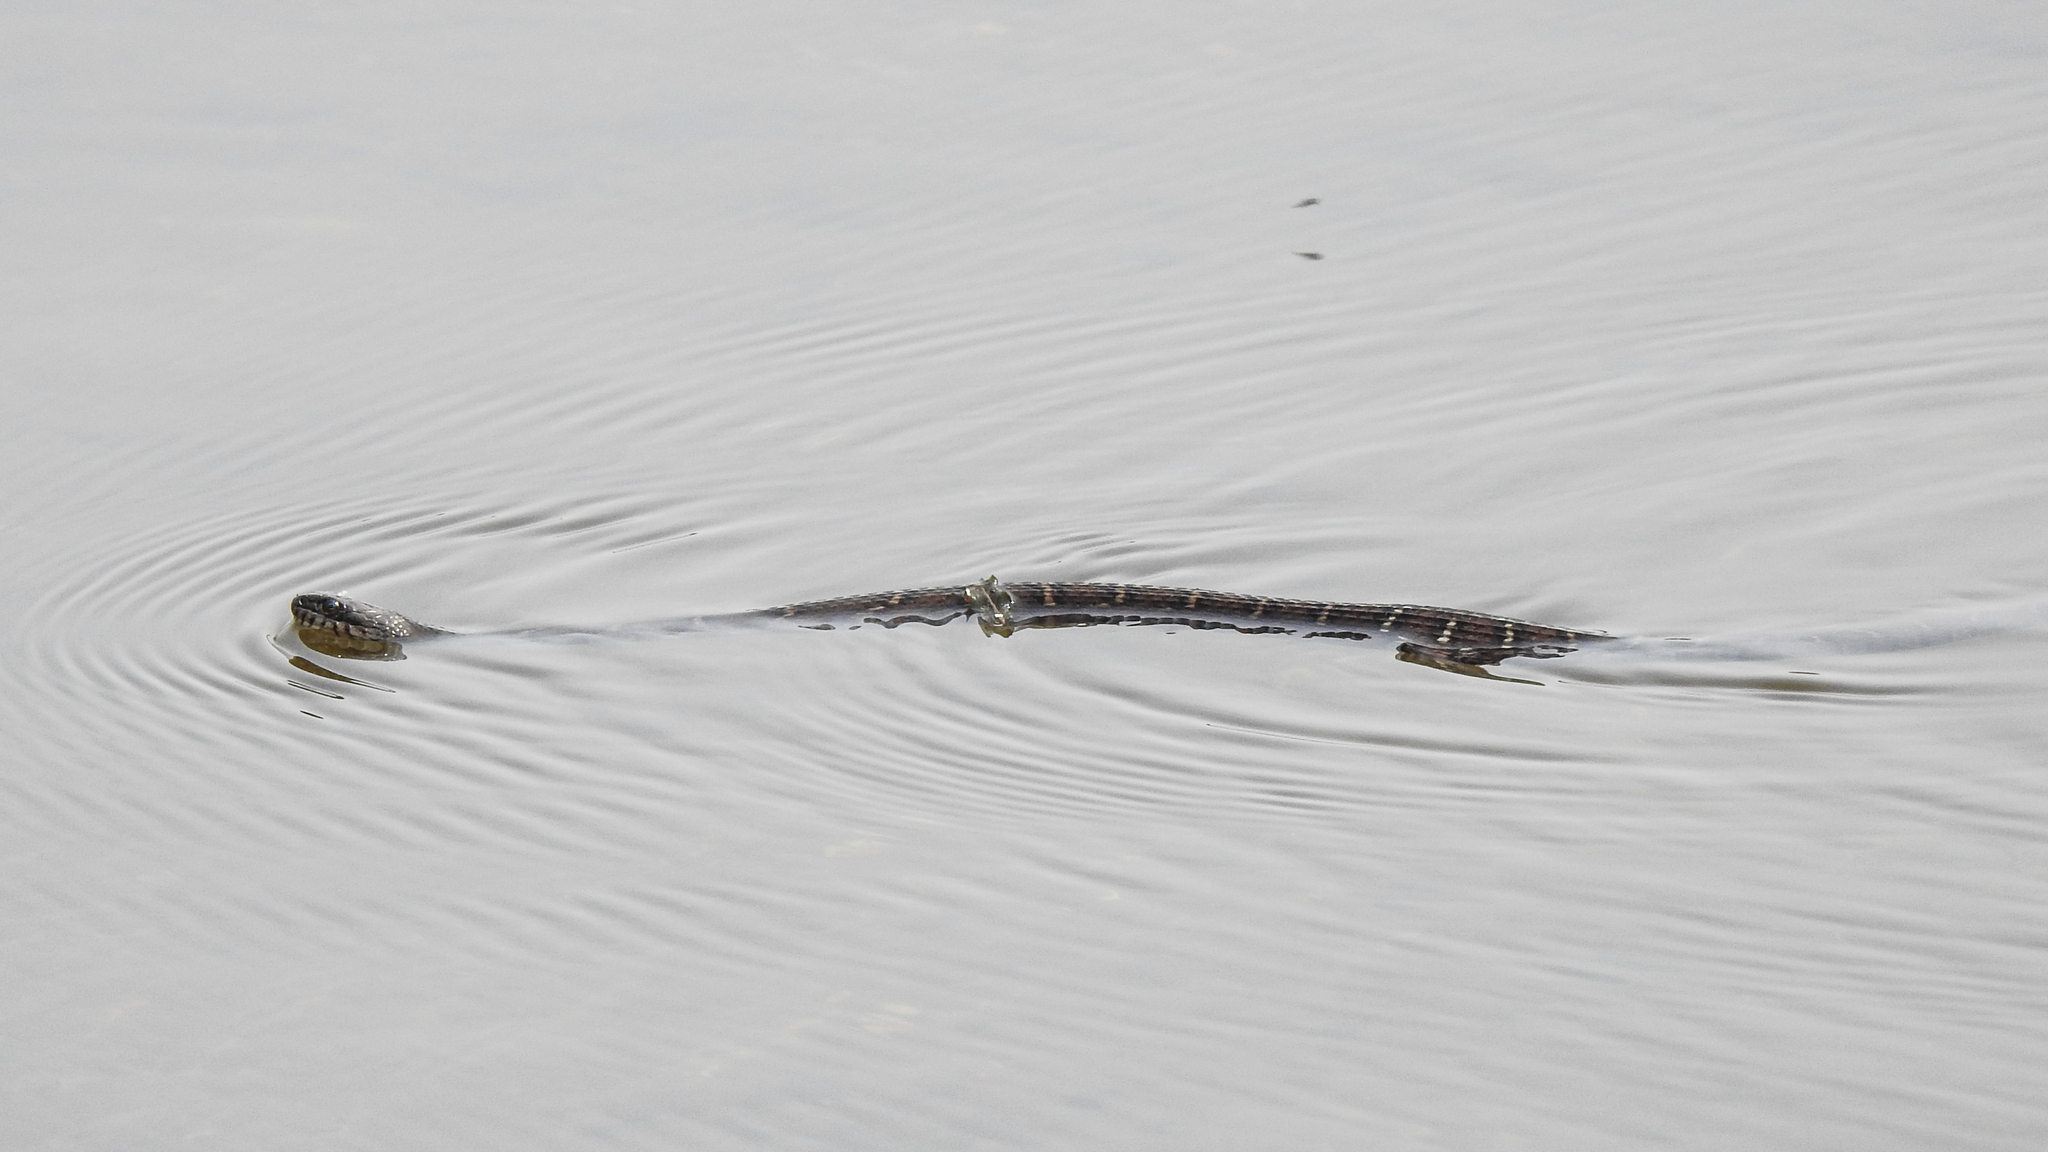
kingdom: Animalia
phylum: Chordata
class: Squamata
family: Colubridae
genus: Nerodia
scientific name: Nerodia sipedon
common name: Northern water snake
